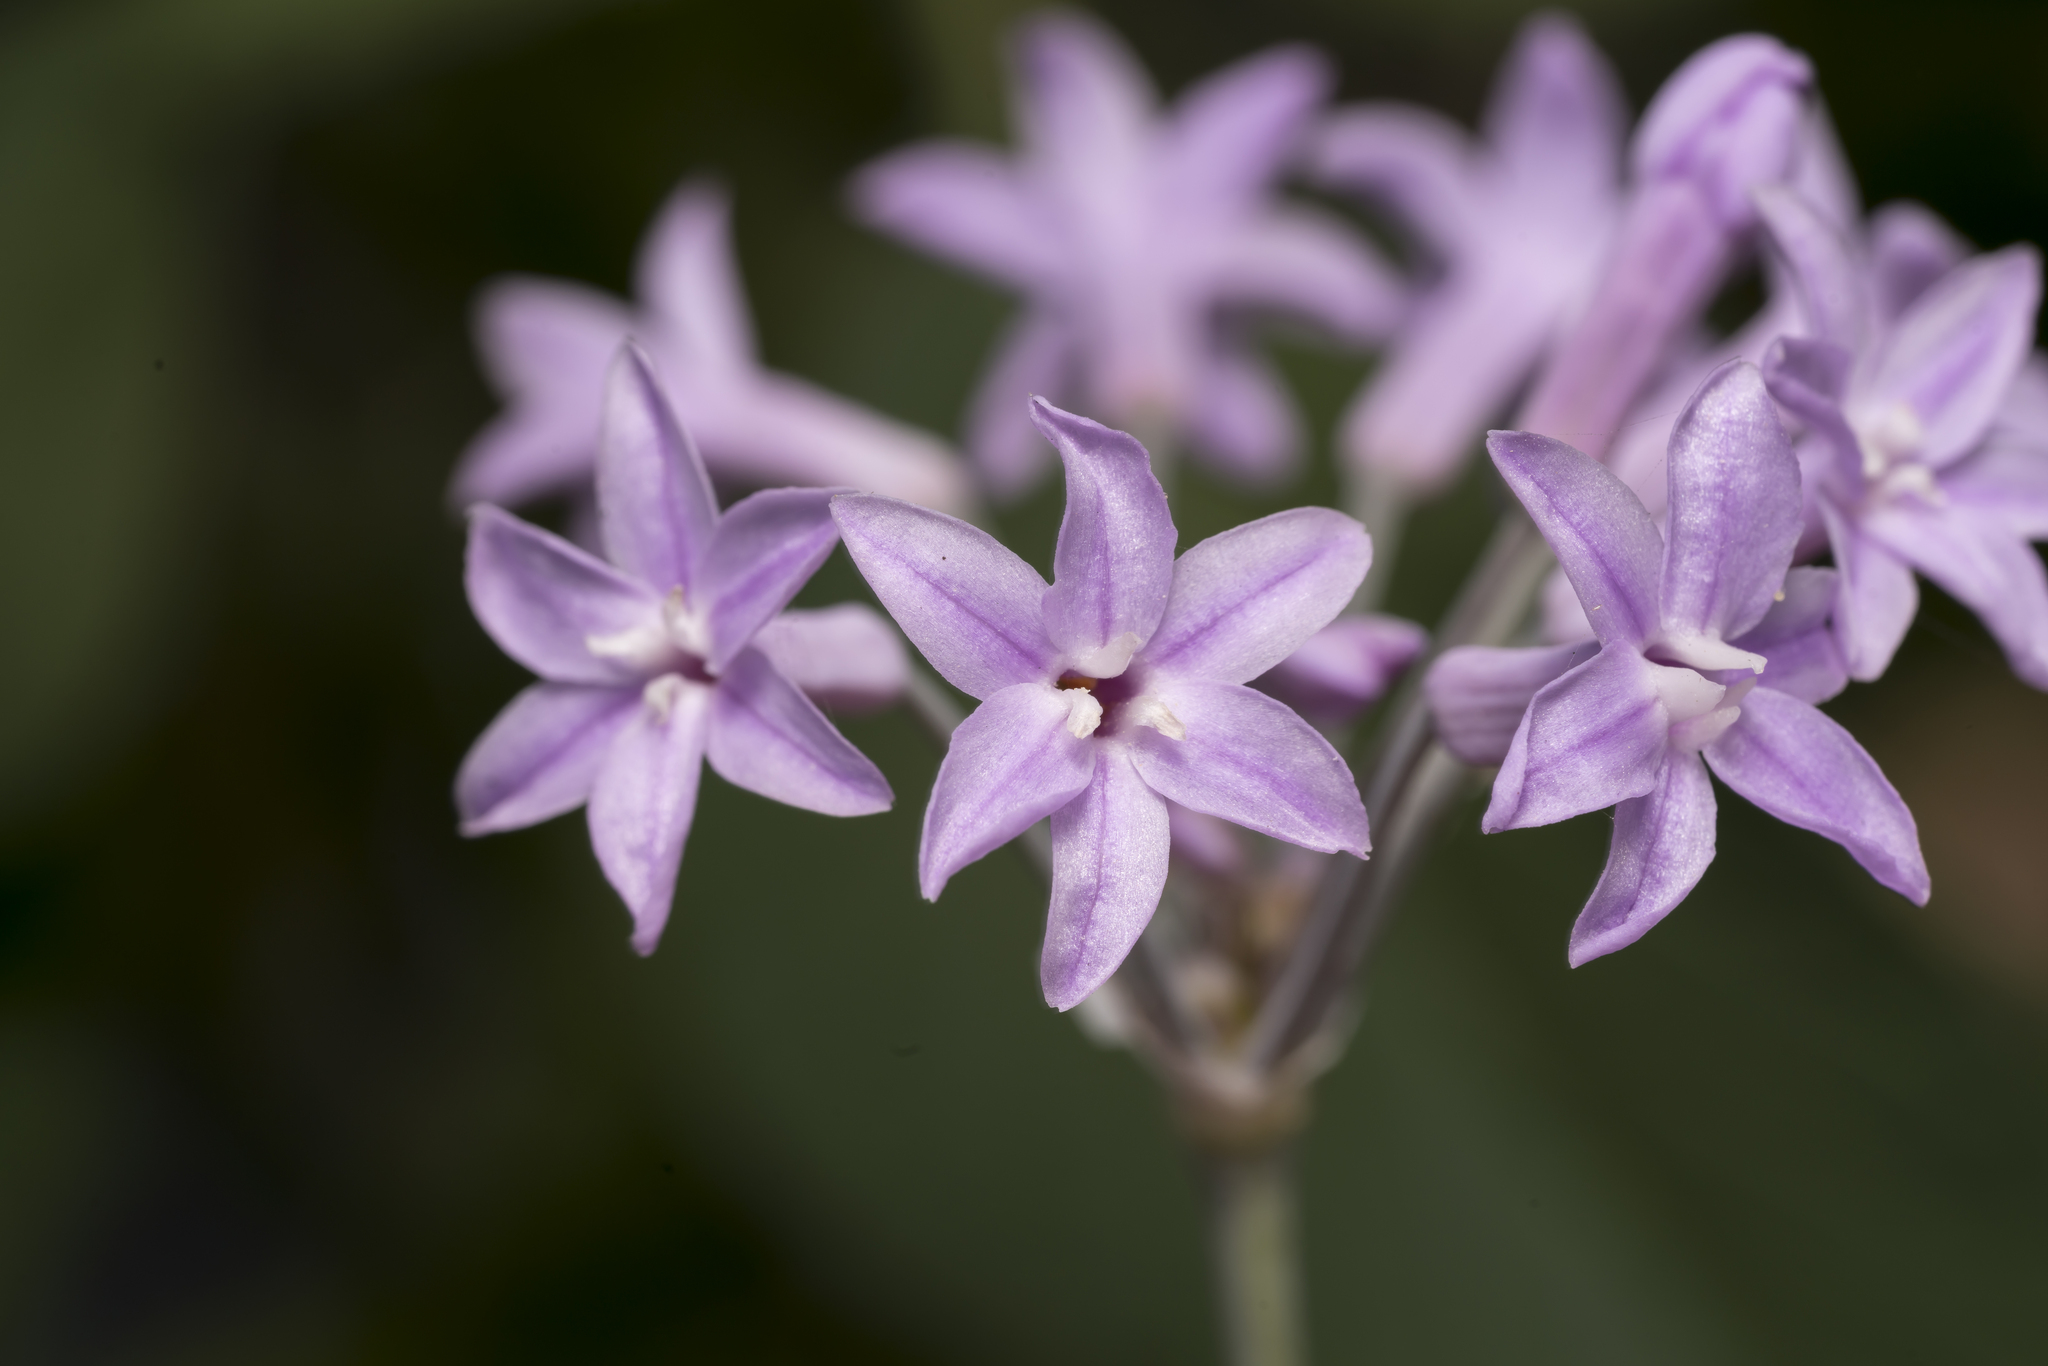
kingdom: Plantae
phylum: Tracheophyta
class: Liliopsida
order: Asparagales
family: Amaryllidaceae
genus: Tulbaghia
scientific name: Tulbaghia violacea
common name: Society garlic
